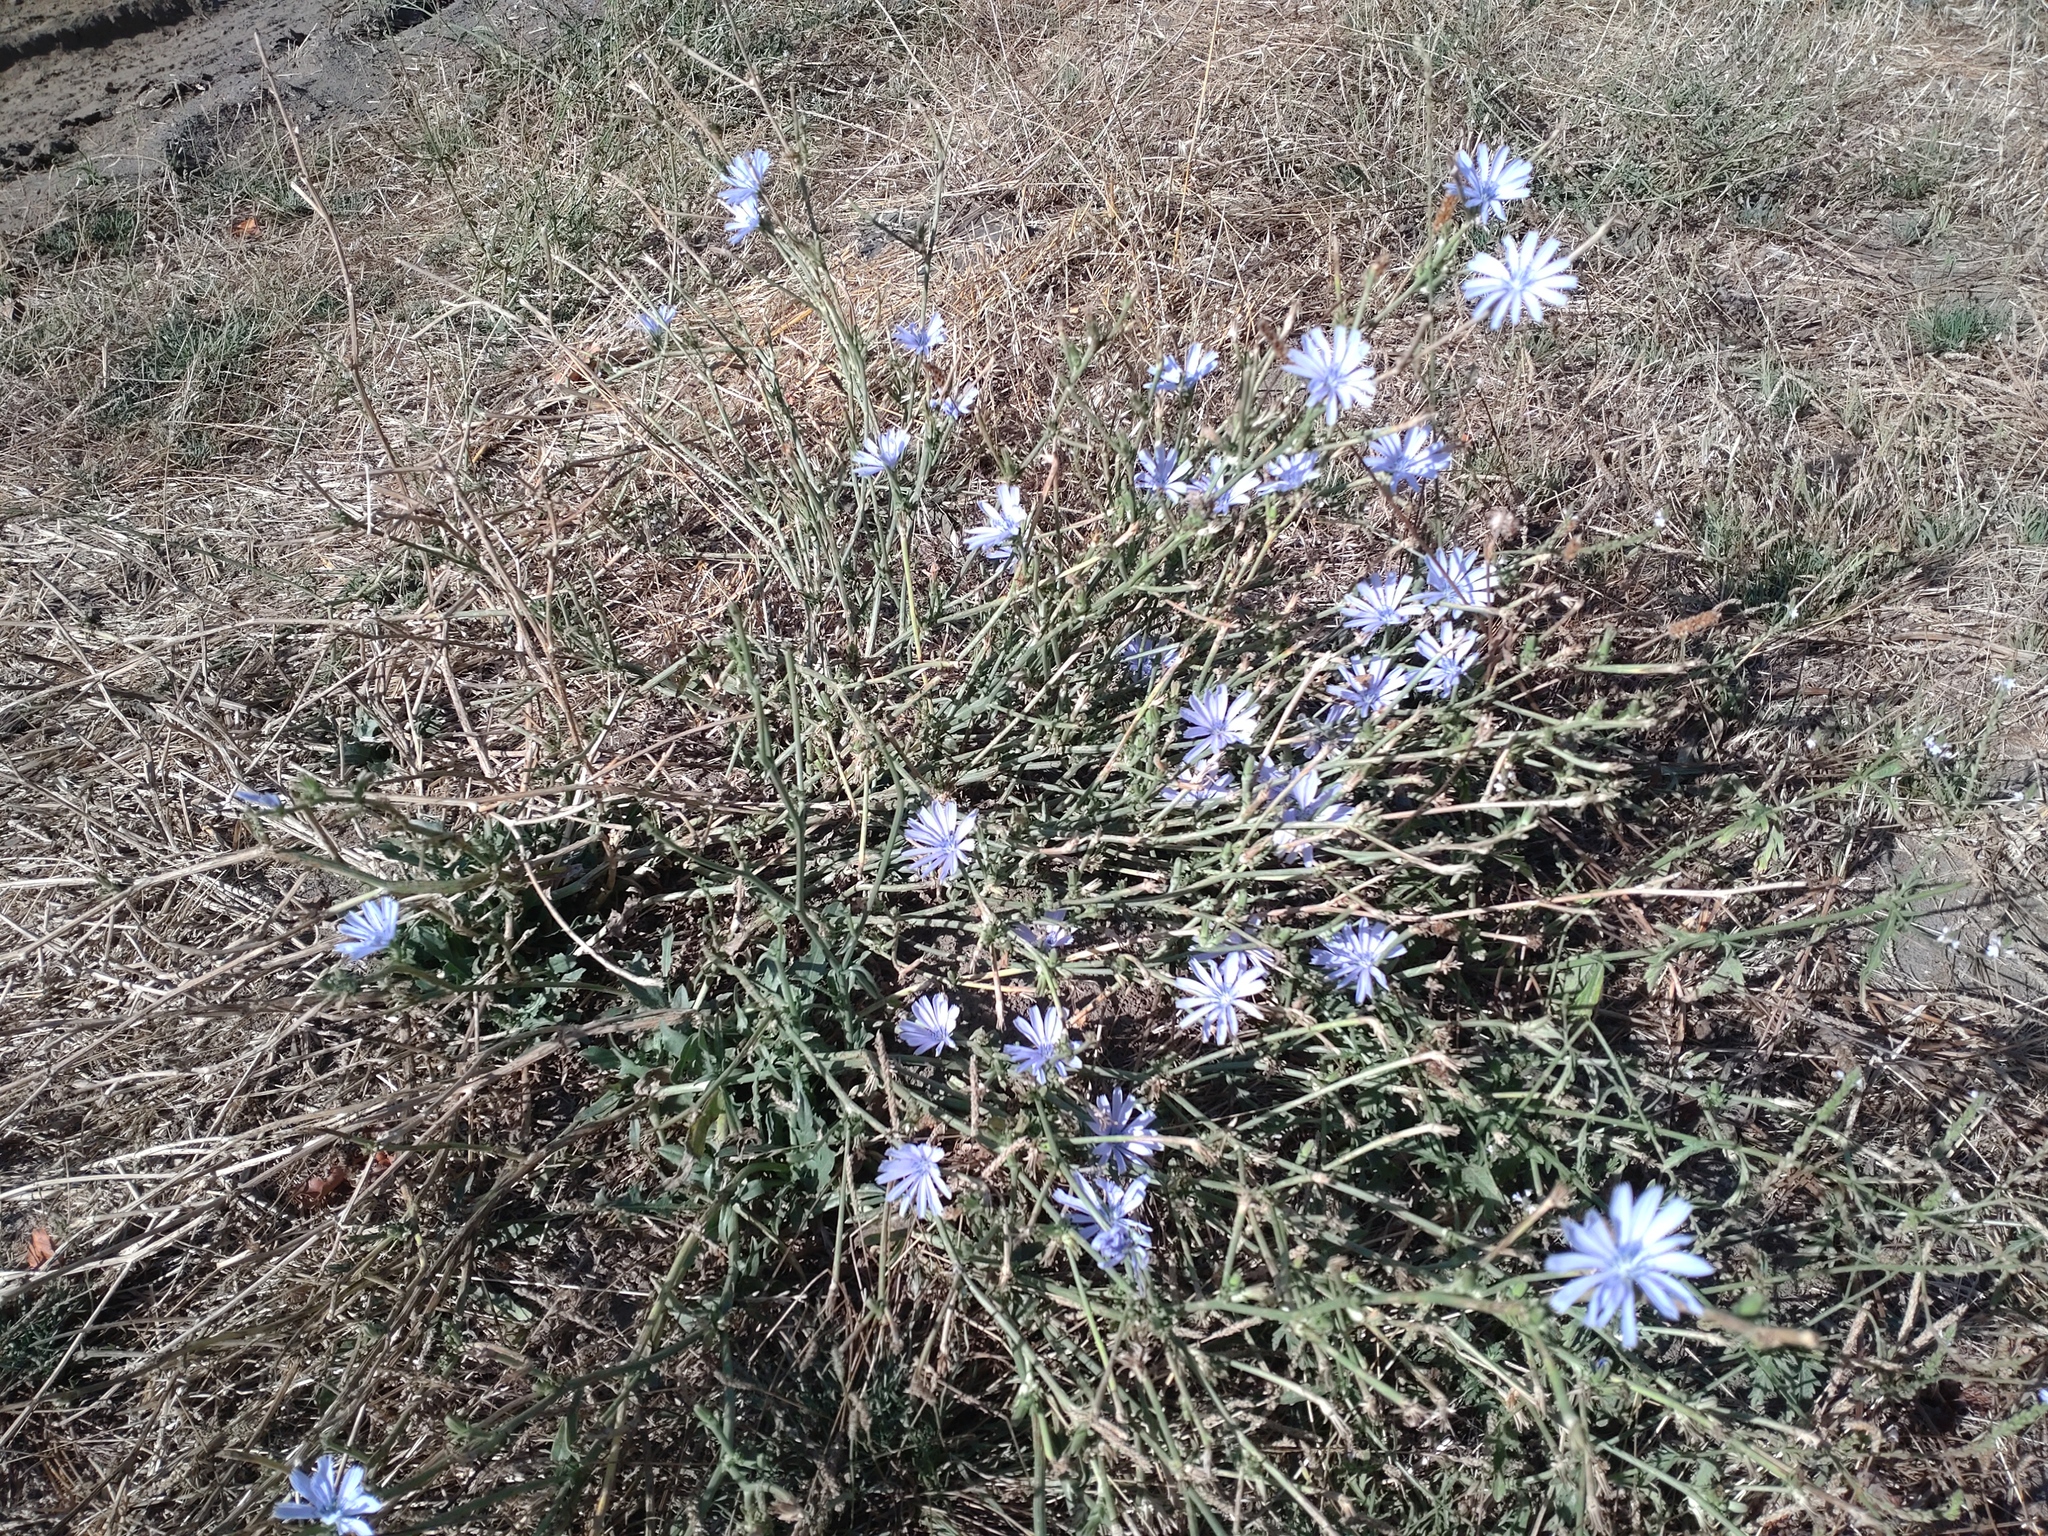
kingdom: Plantae
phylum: Tracheophyta
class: Magnoliopsida
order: Asterales
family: Asteraceae
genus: Cichorium
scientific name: Cichorium intybus
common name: Chicory
